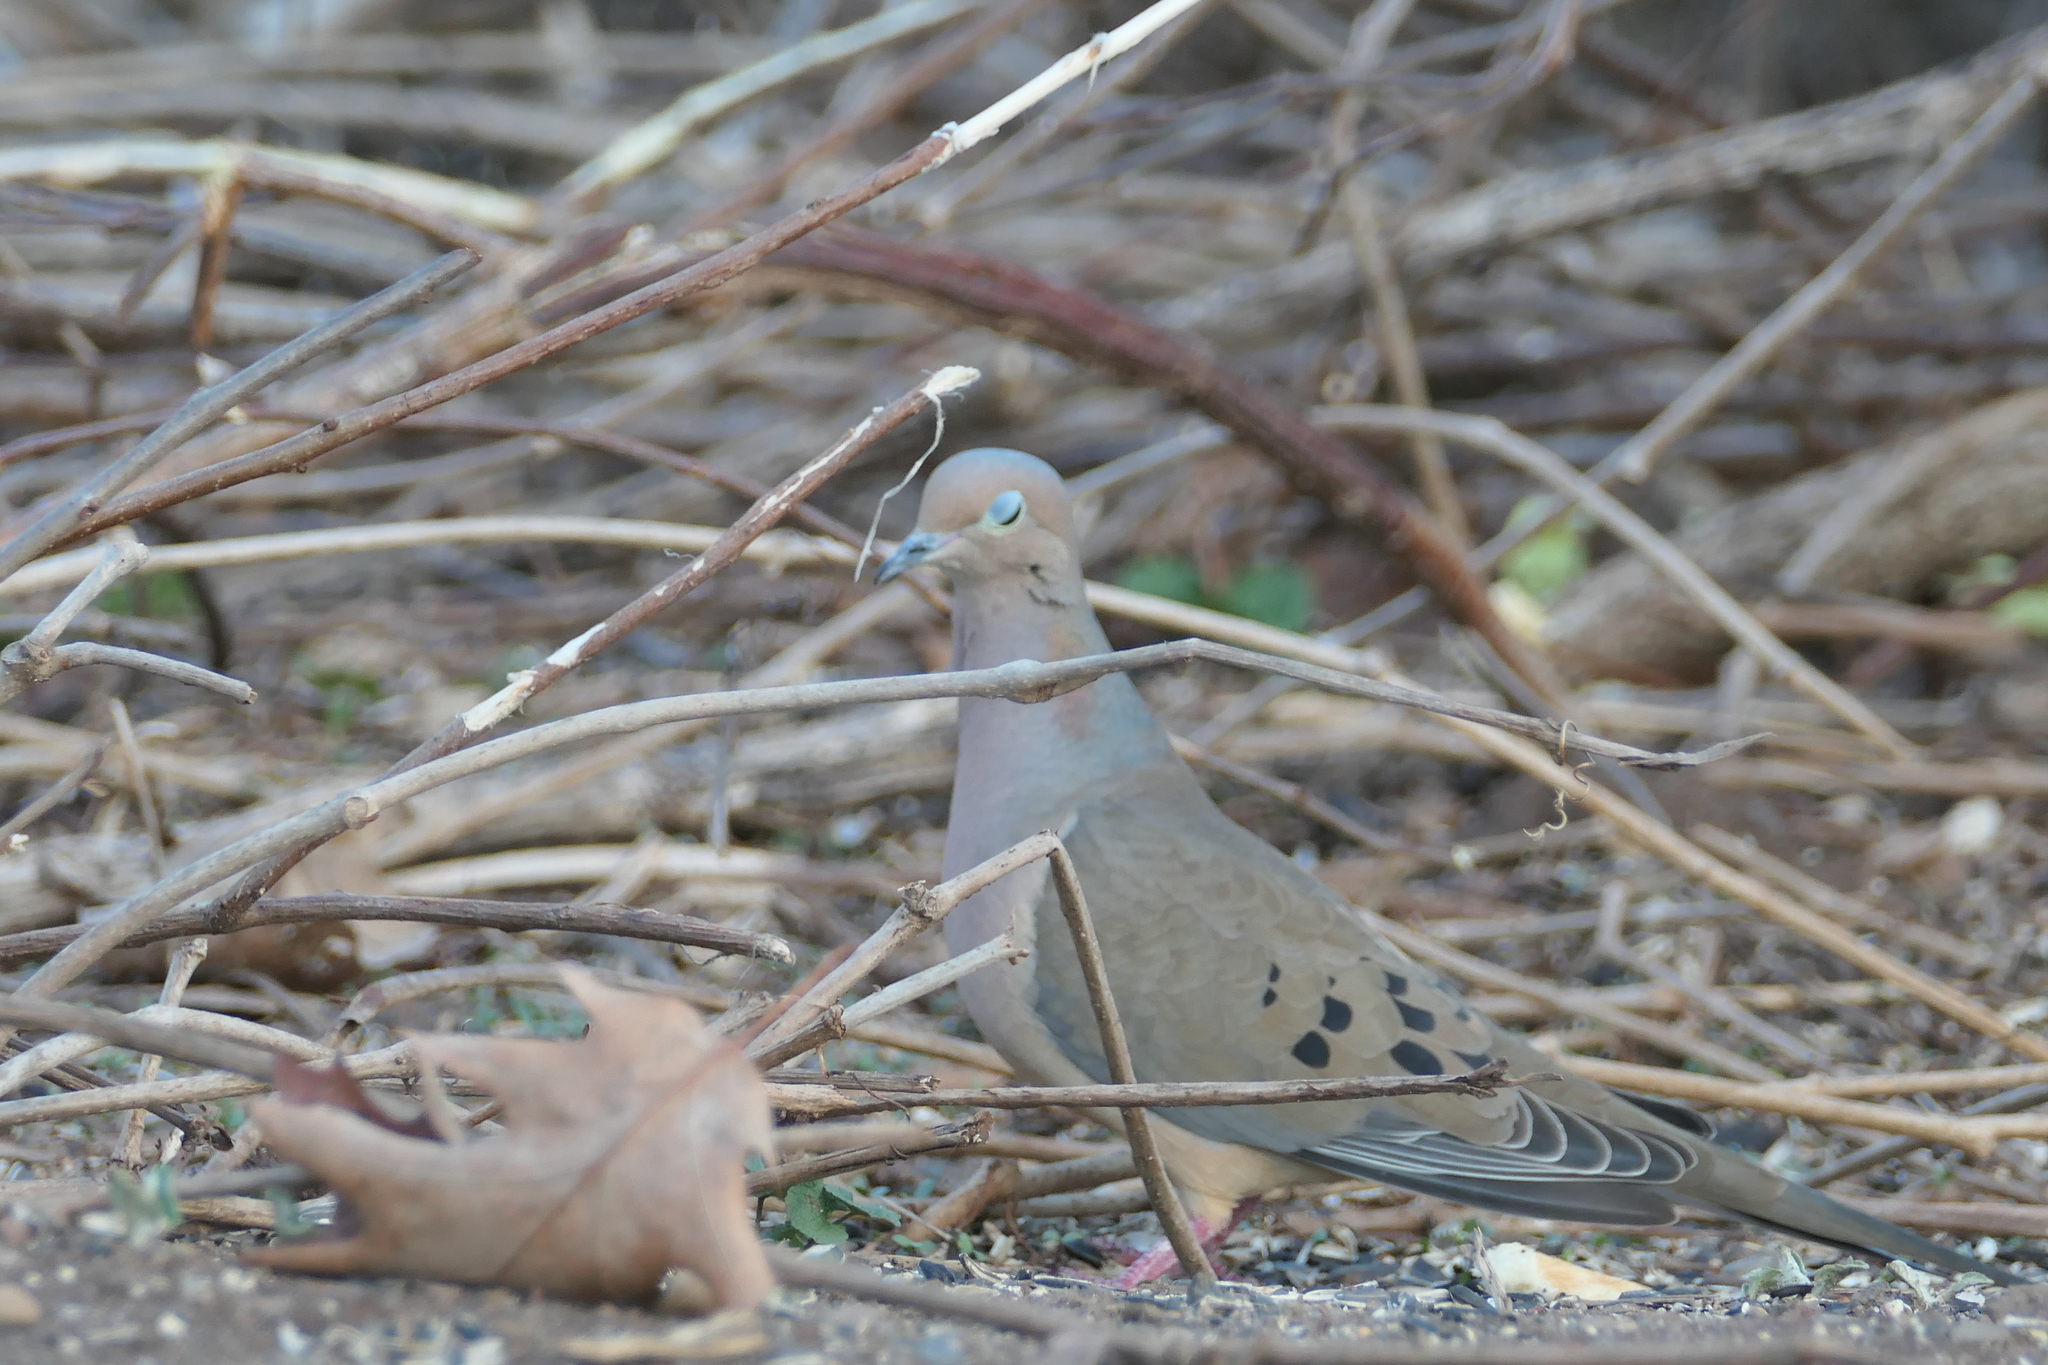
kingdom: Animalia
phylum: Chordata
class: Aves
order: Columbiformes
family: Columbidae
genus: Zenaida
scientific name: Zenaida macroura
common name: Mourning dove
